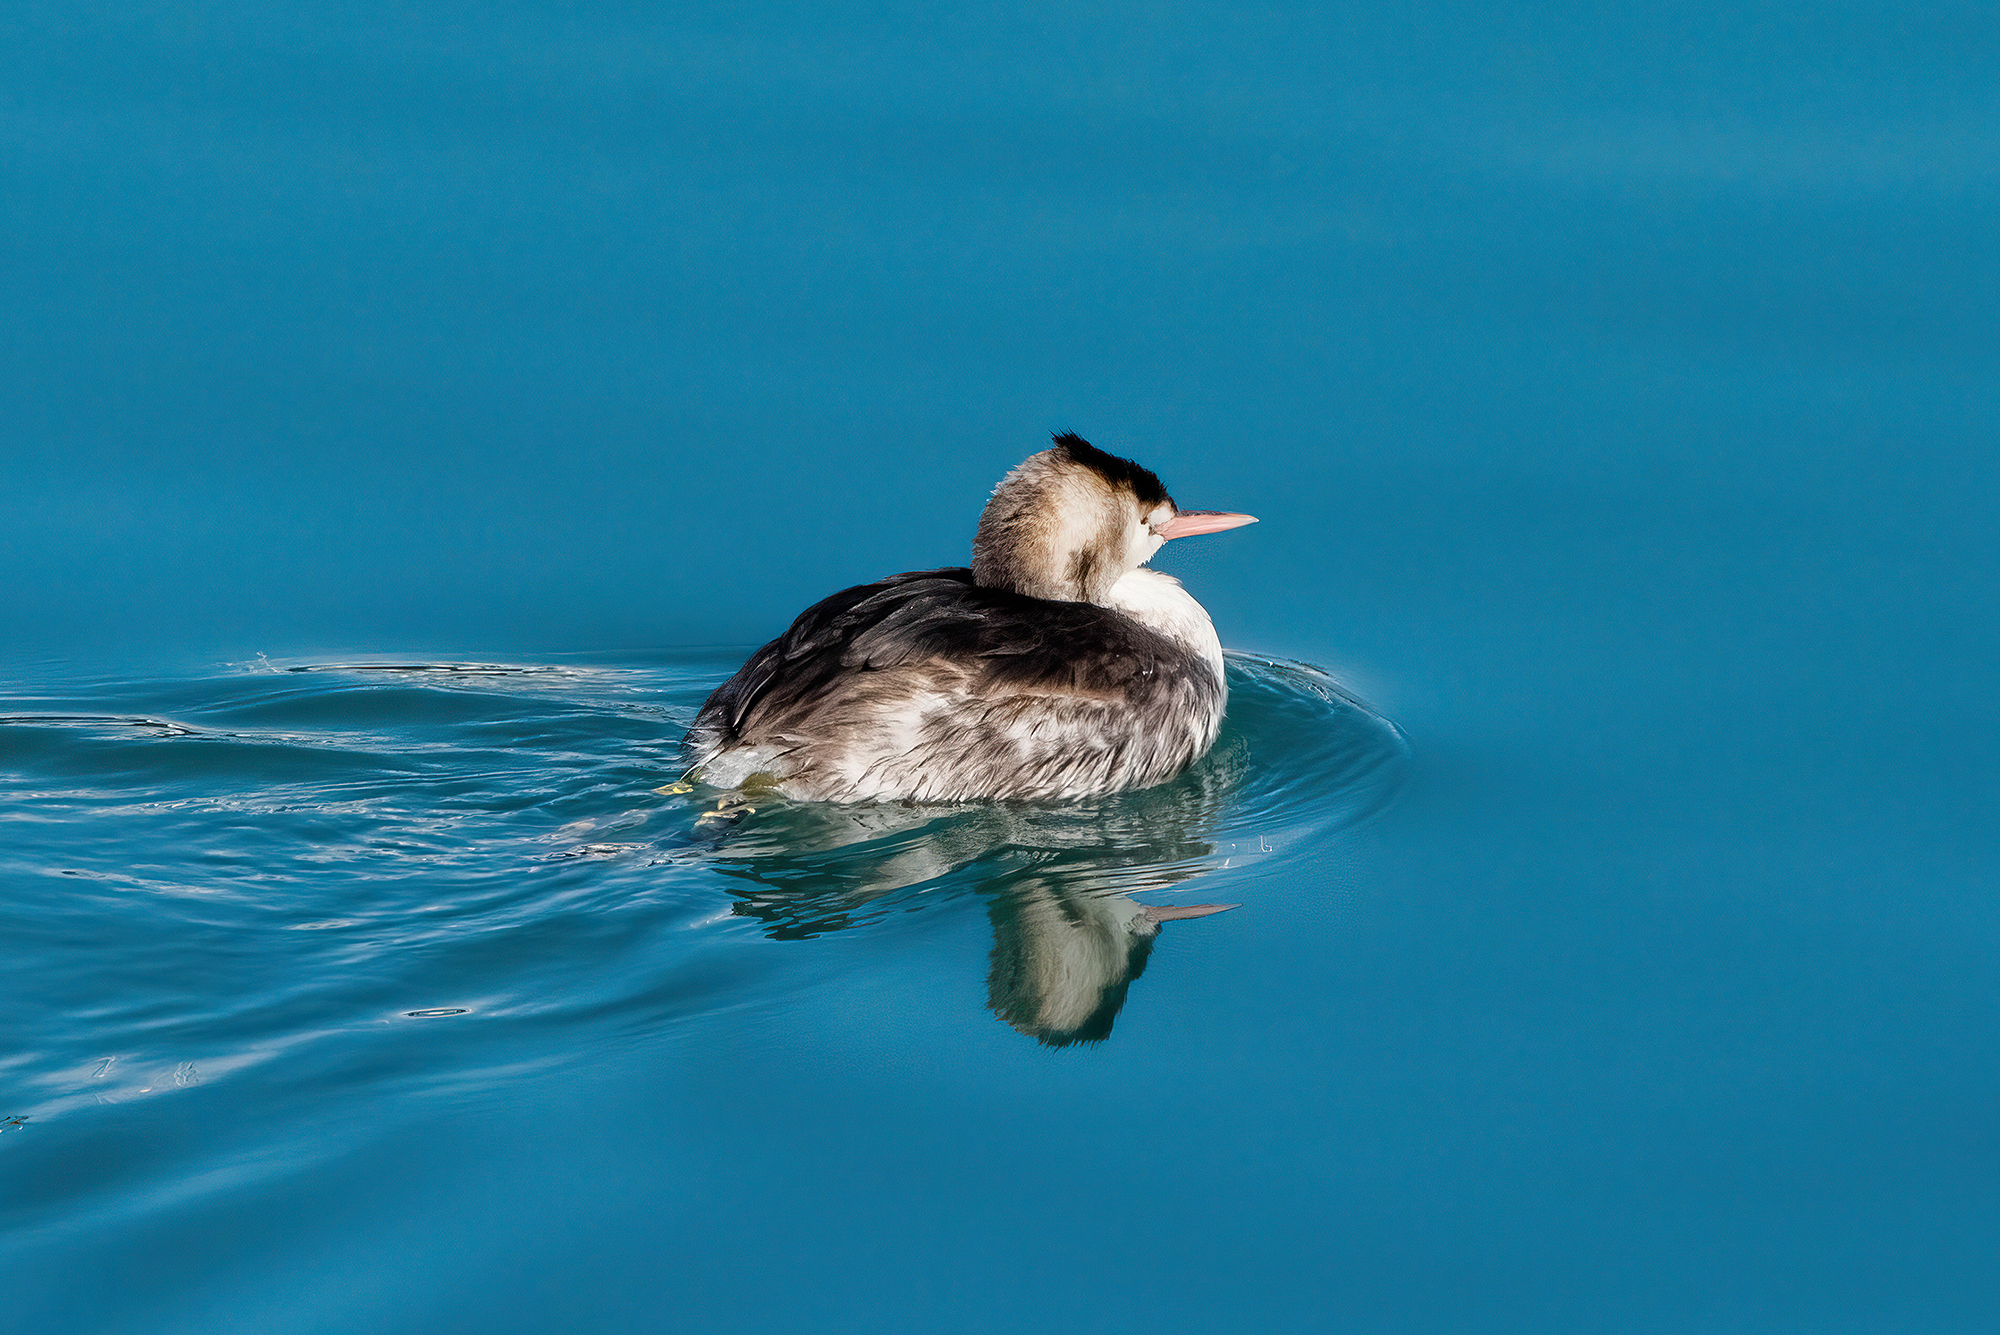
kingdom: Animalia
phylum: Chordata
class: Aves
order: Podicipediformes
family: Podicipedidae
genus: Podiceps
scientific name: Podiceps cristatus
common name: Great crested grebe
